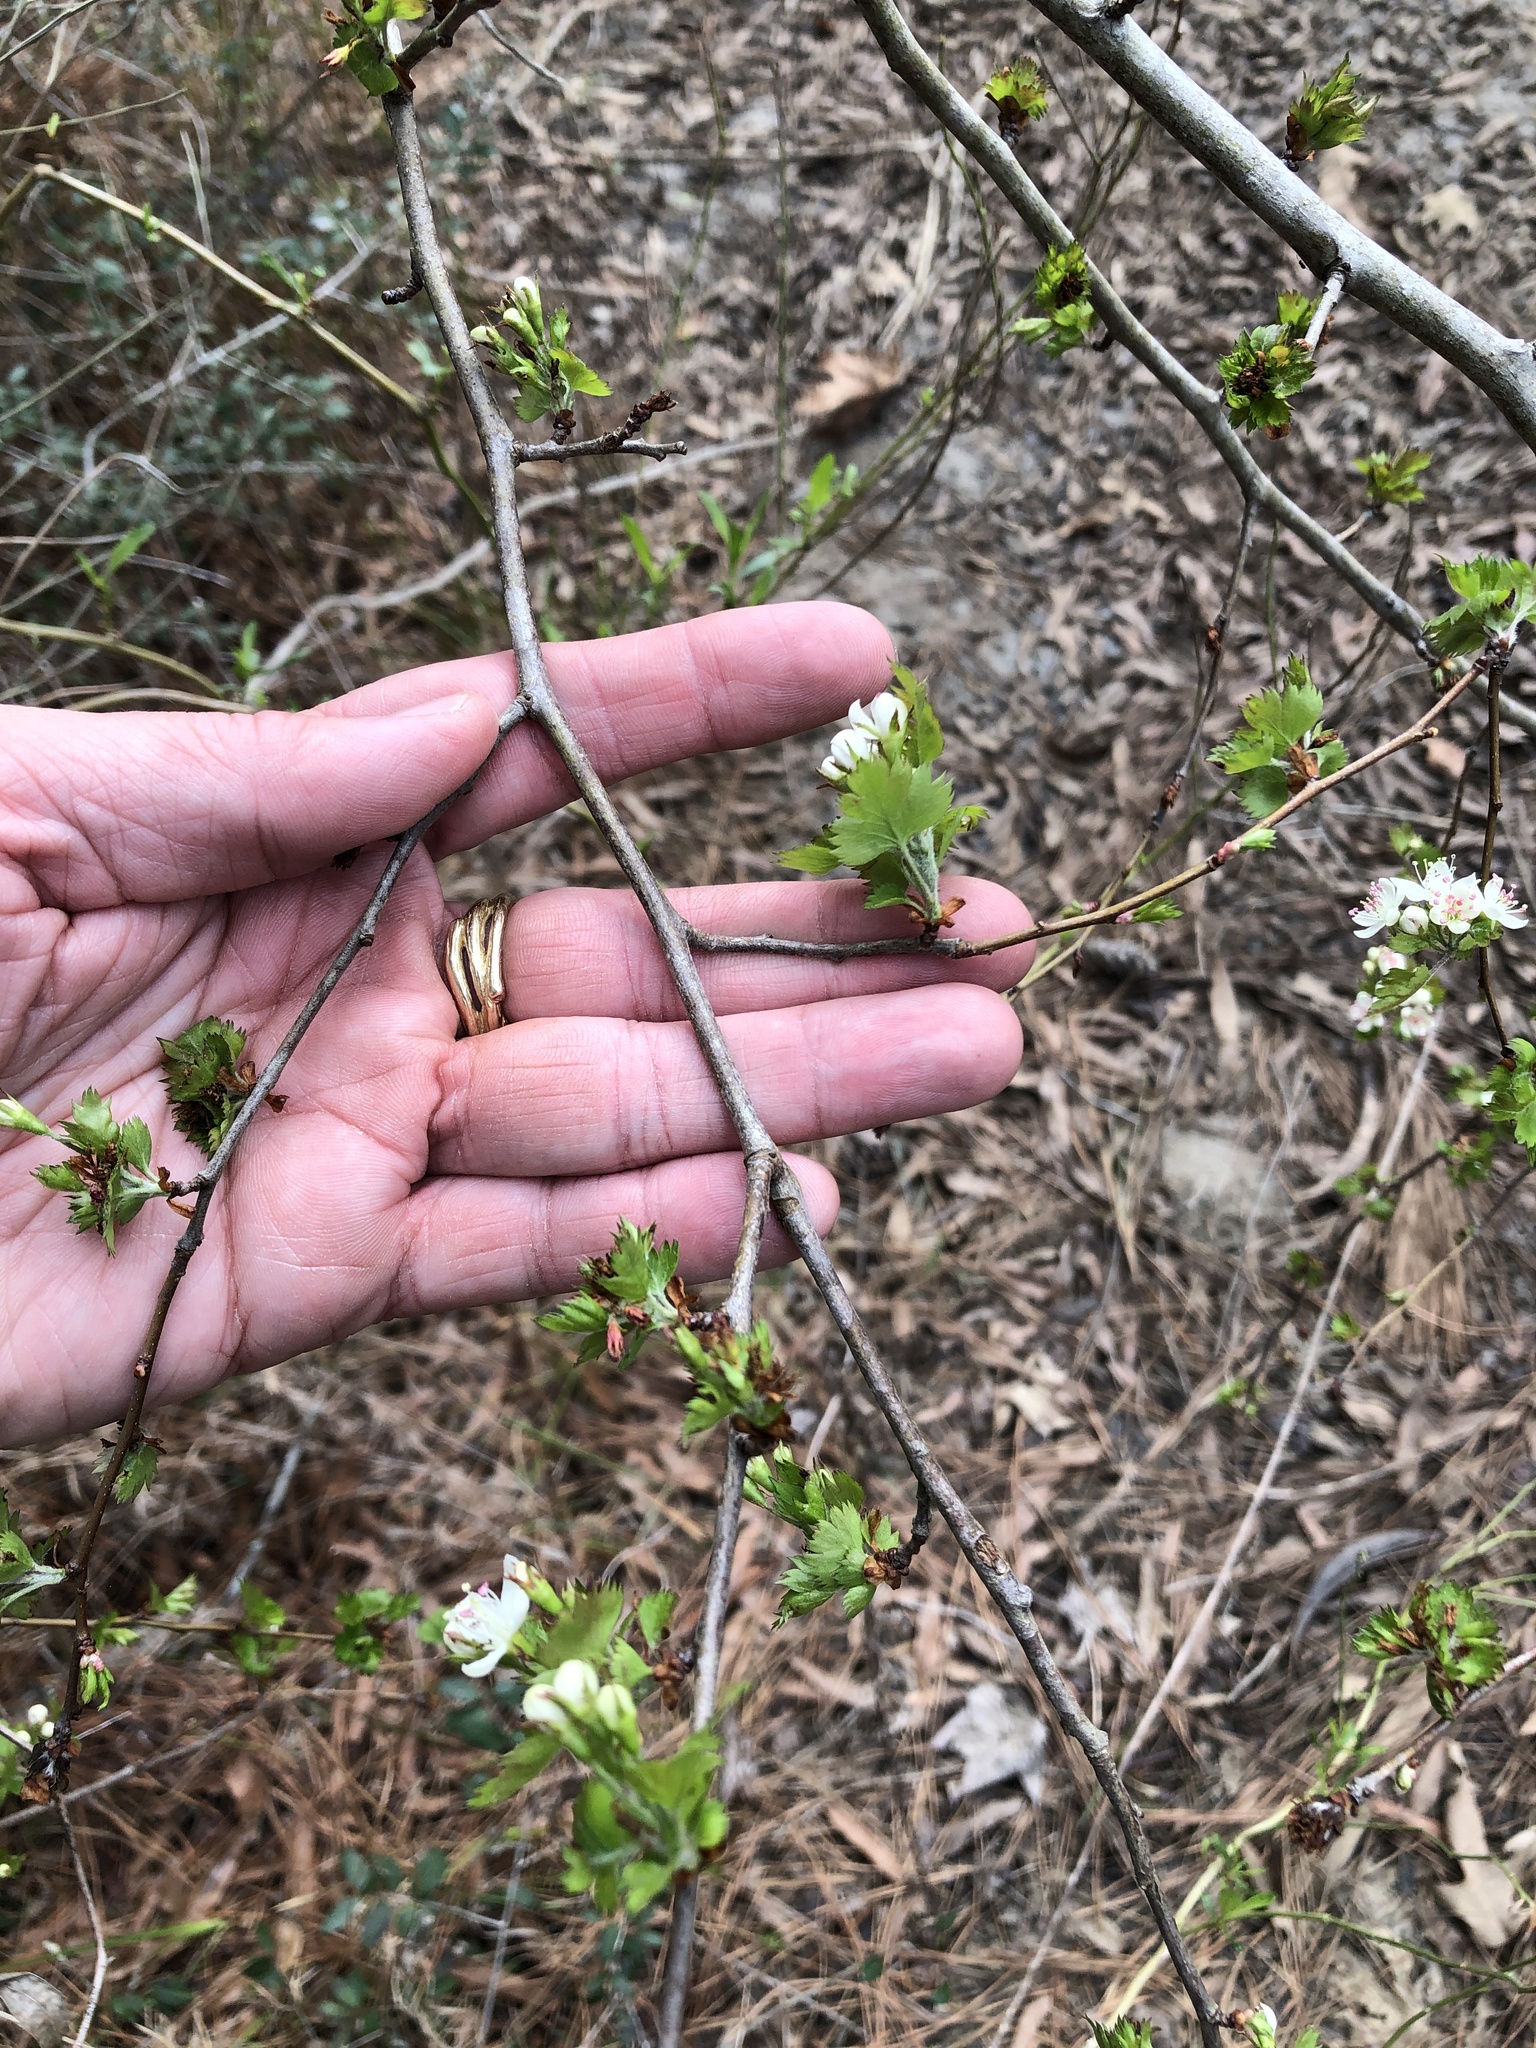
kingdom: Plantae
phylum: Tracheophyta
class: Magnoliopsida
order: Rosales
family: Rosaceae
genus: Crataegus
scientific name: Crataegus marshallii
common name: Parsley-hawthorn
